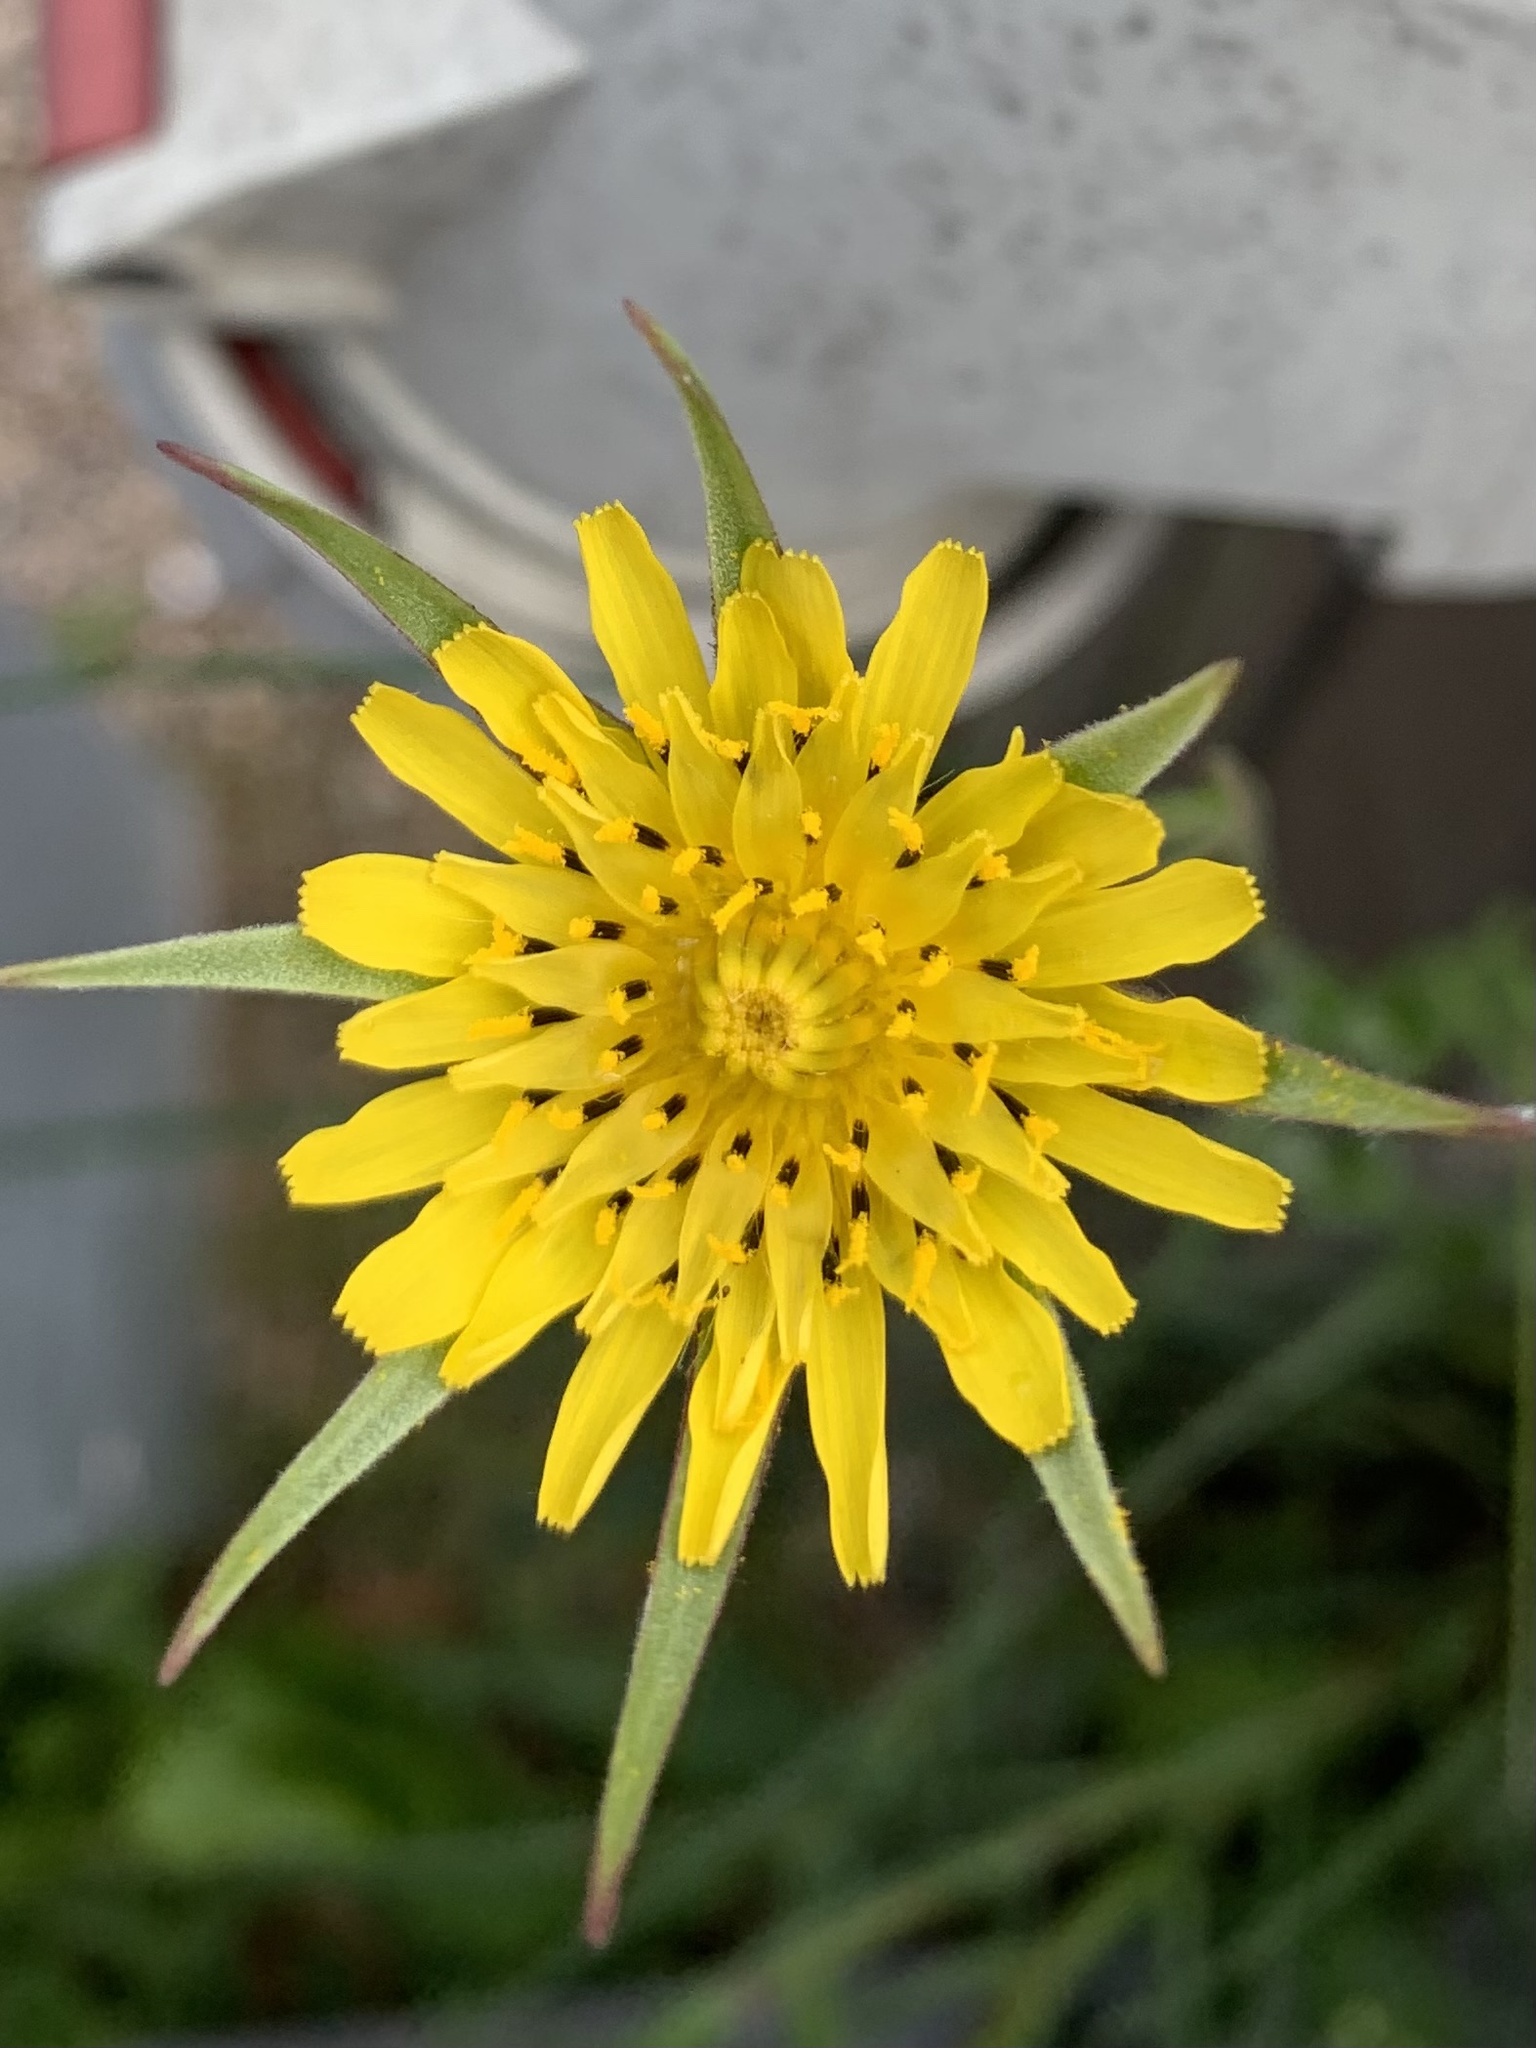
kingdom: Plantae
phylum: Tracheophyta
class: Magnoliopsida
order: Asterales
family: Asteraceae
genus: Tragopogon
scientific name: Tragopogon pratensis
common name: Goat's-beard
